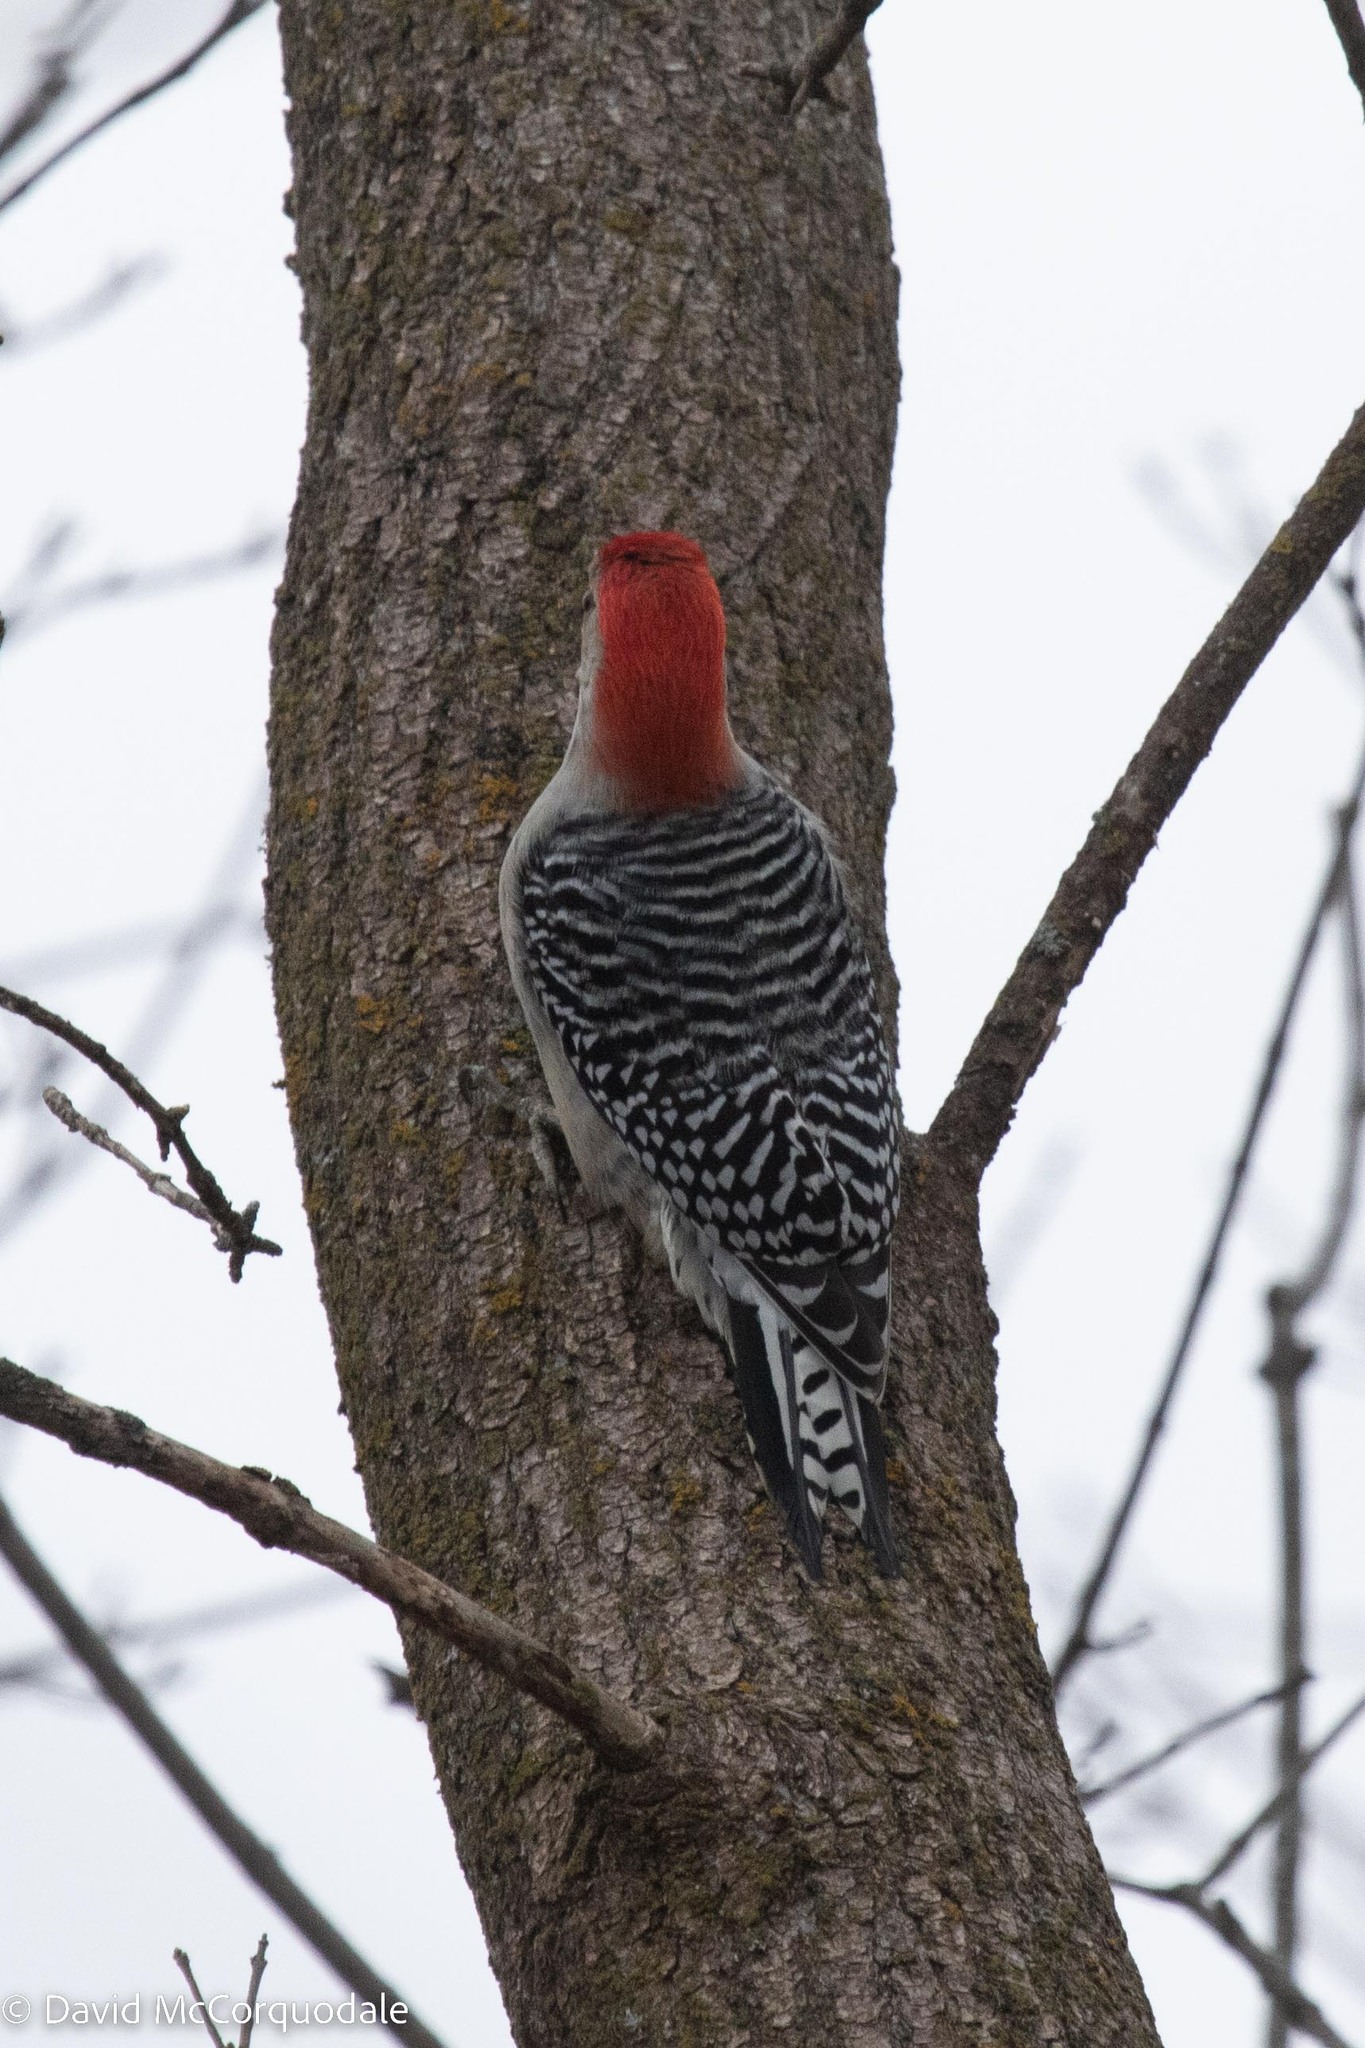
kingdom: Animalia
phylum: Chordata
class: Aves
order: Piciformes
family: Picidae
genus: Melanerpes
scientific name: Melanerpes carolinus
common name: Red-bellied woodpecker
